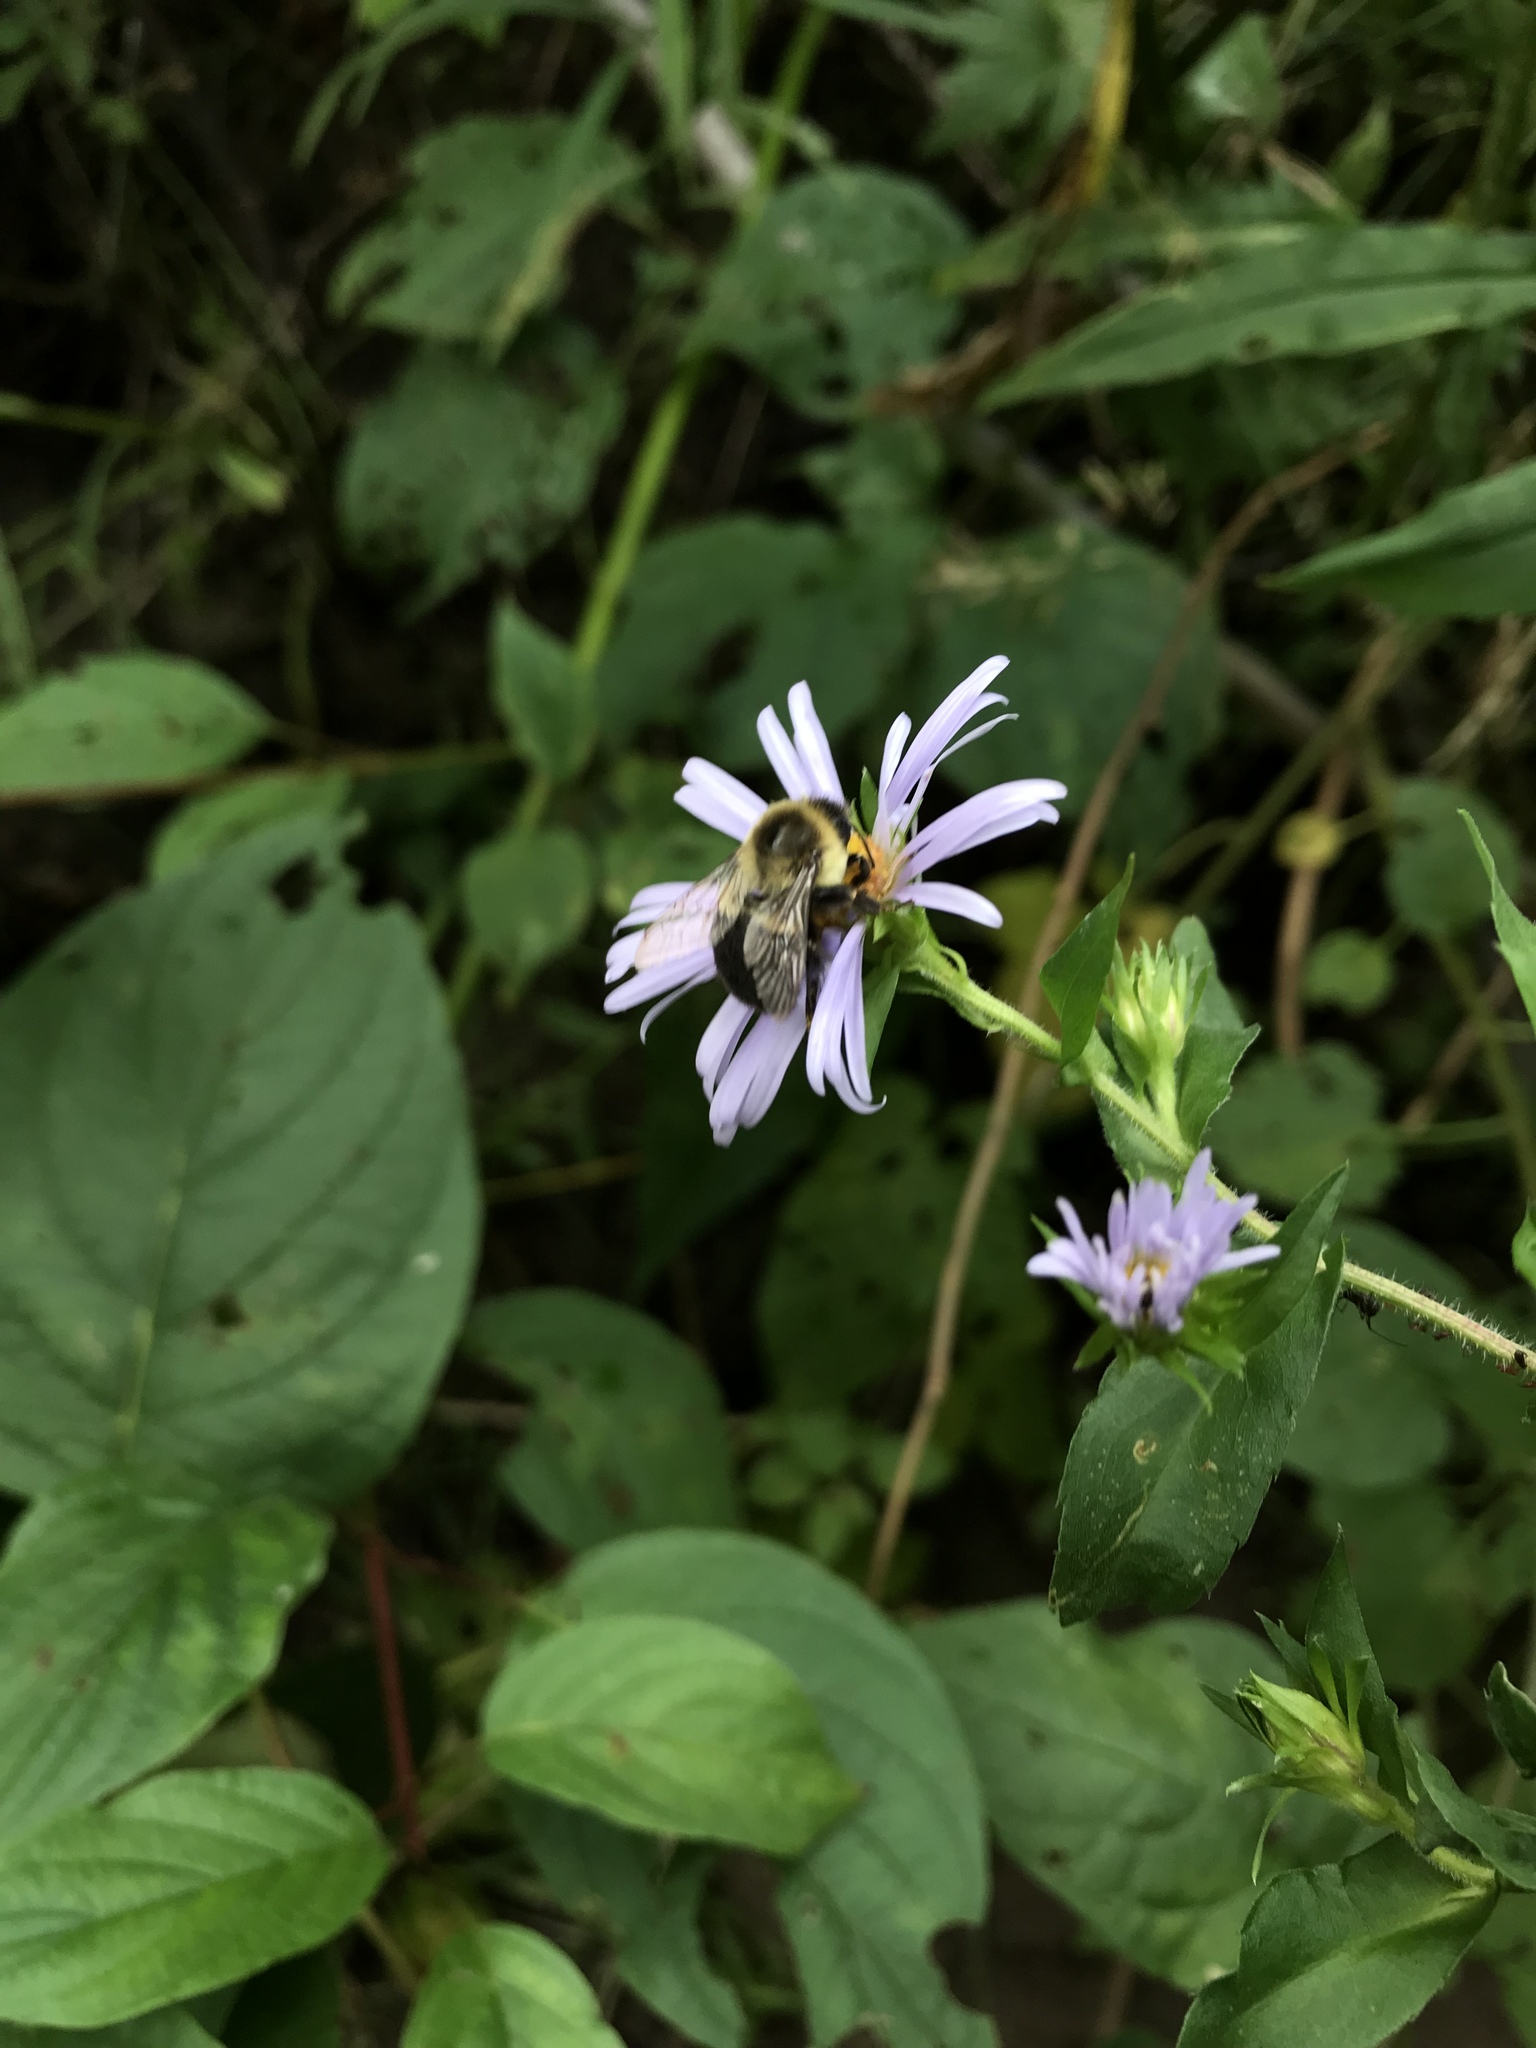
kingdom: Animalia
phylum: Arthropoda
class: Insecta
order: Hymenoptera
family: Apidae
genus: Bombus
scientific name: Bombus impatiens
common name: Common eastern bumble bee
